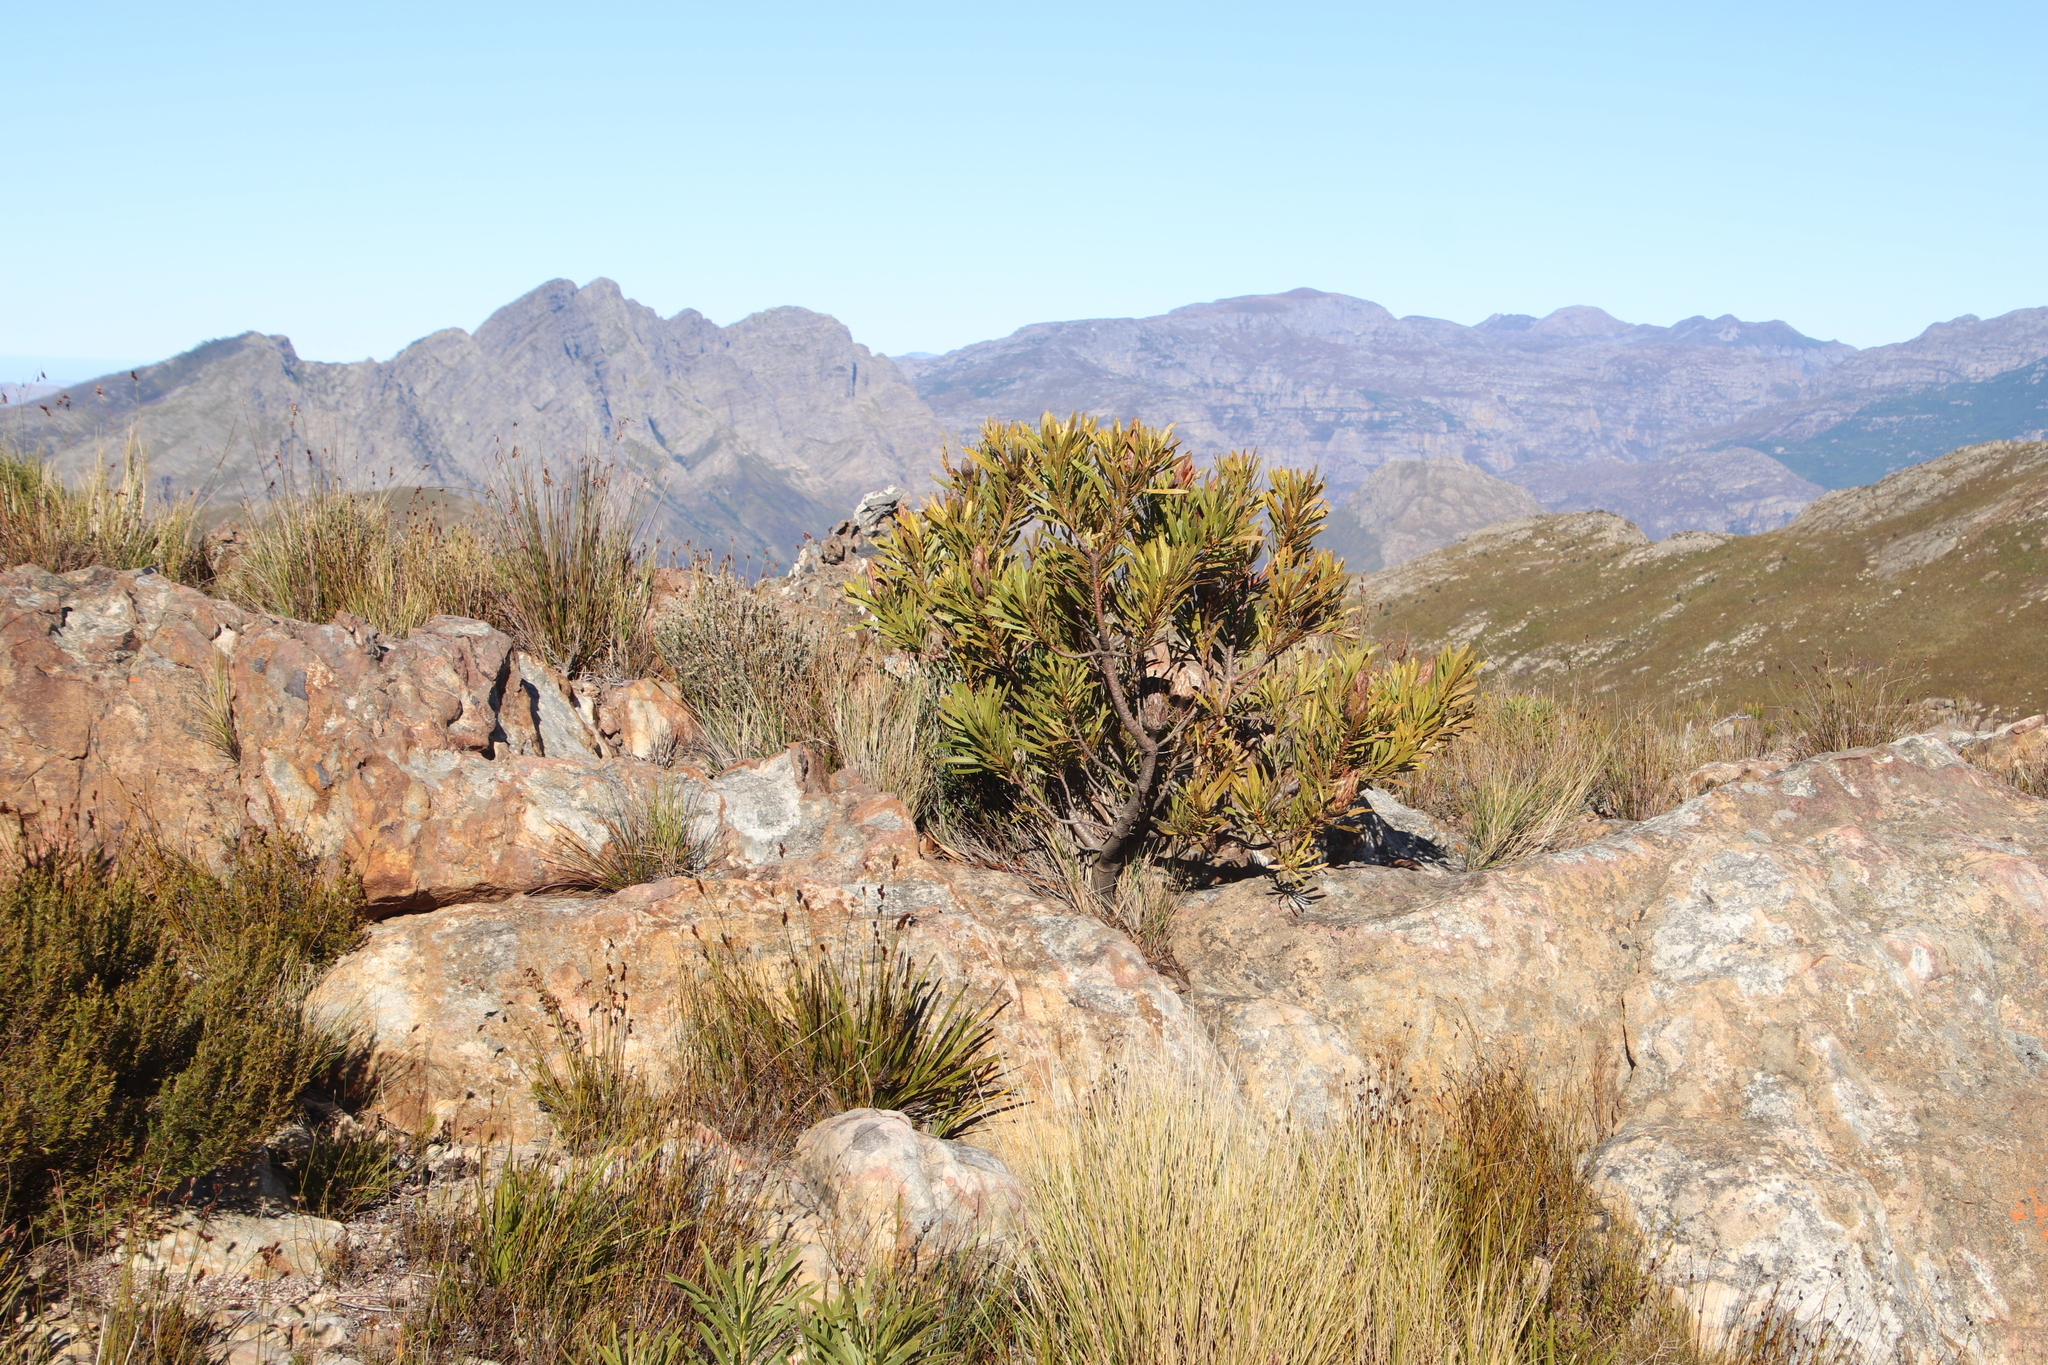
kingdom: Plantae
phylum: Tracheophyta
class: Magnoliopsida
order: Proteales
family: Proteaceae
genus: Protea
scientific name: Protea repens
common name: Sugarbush
